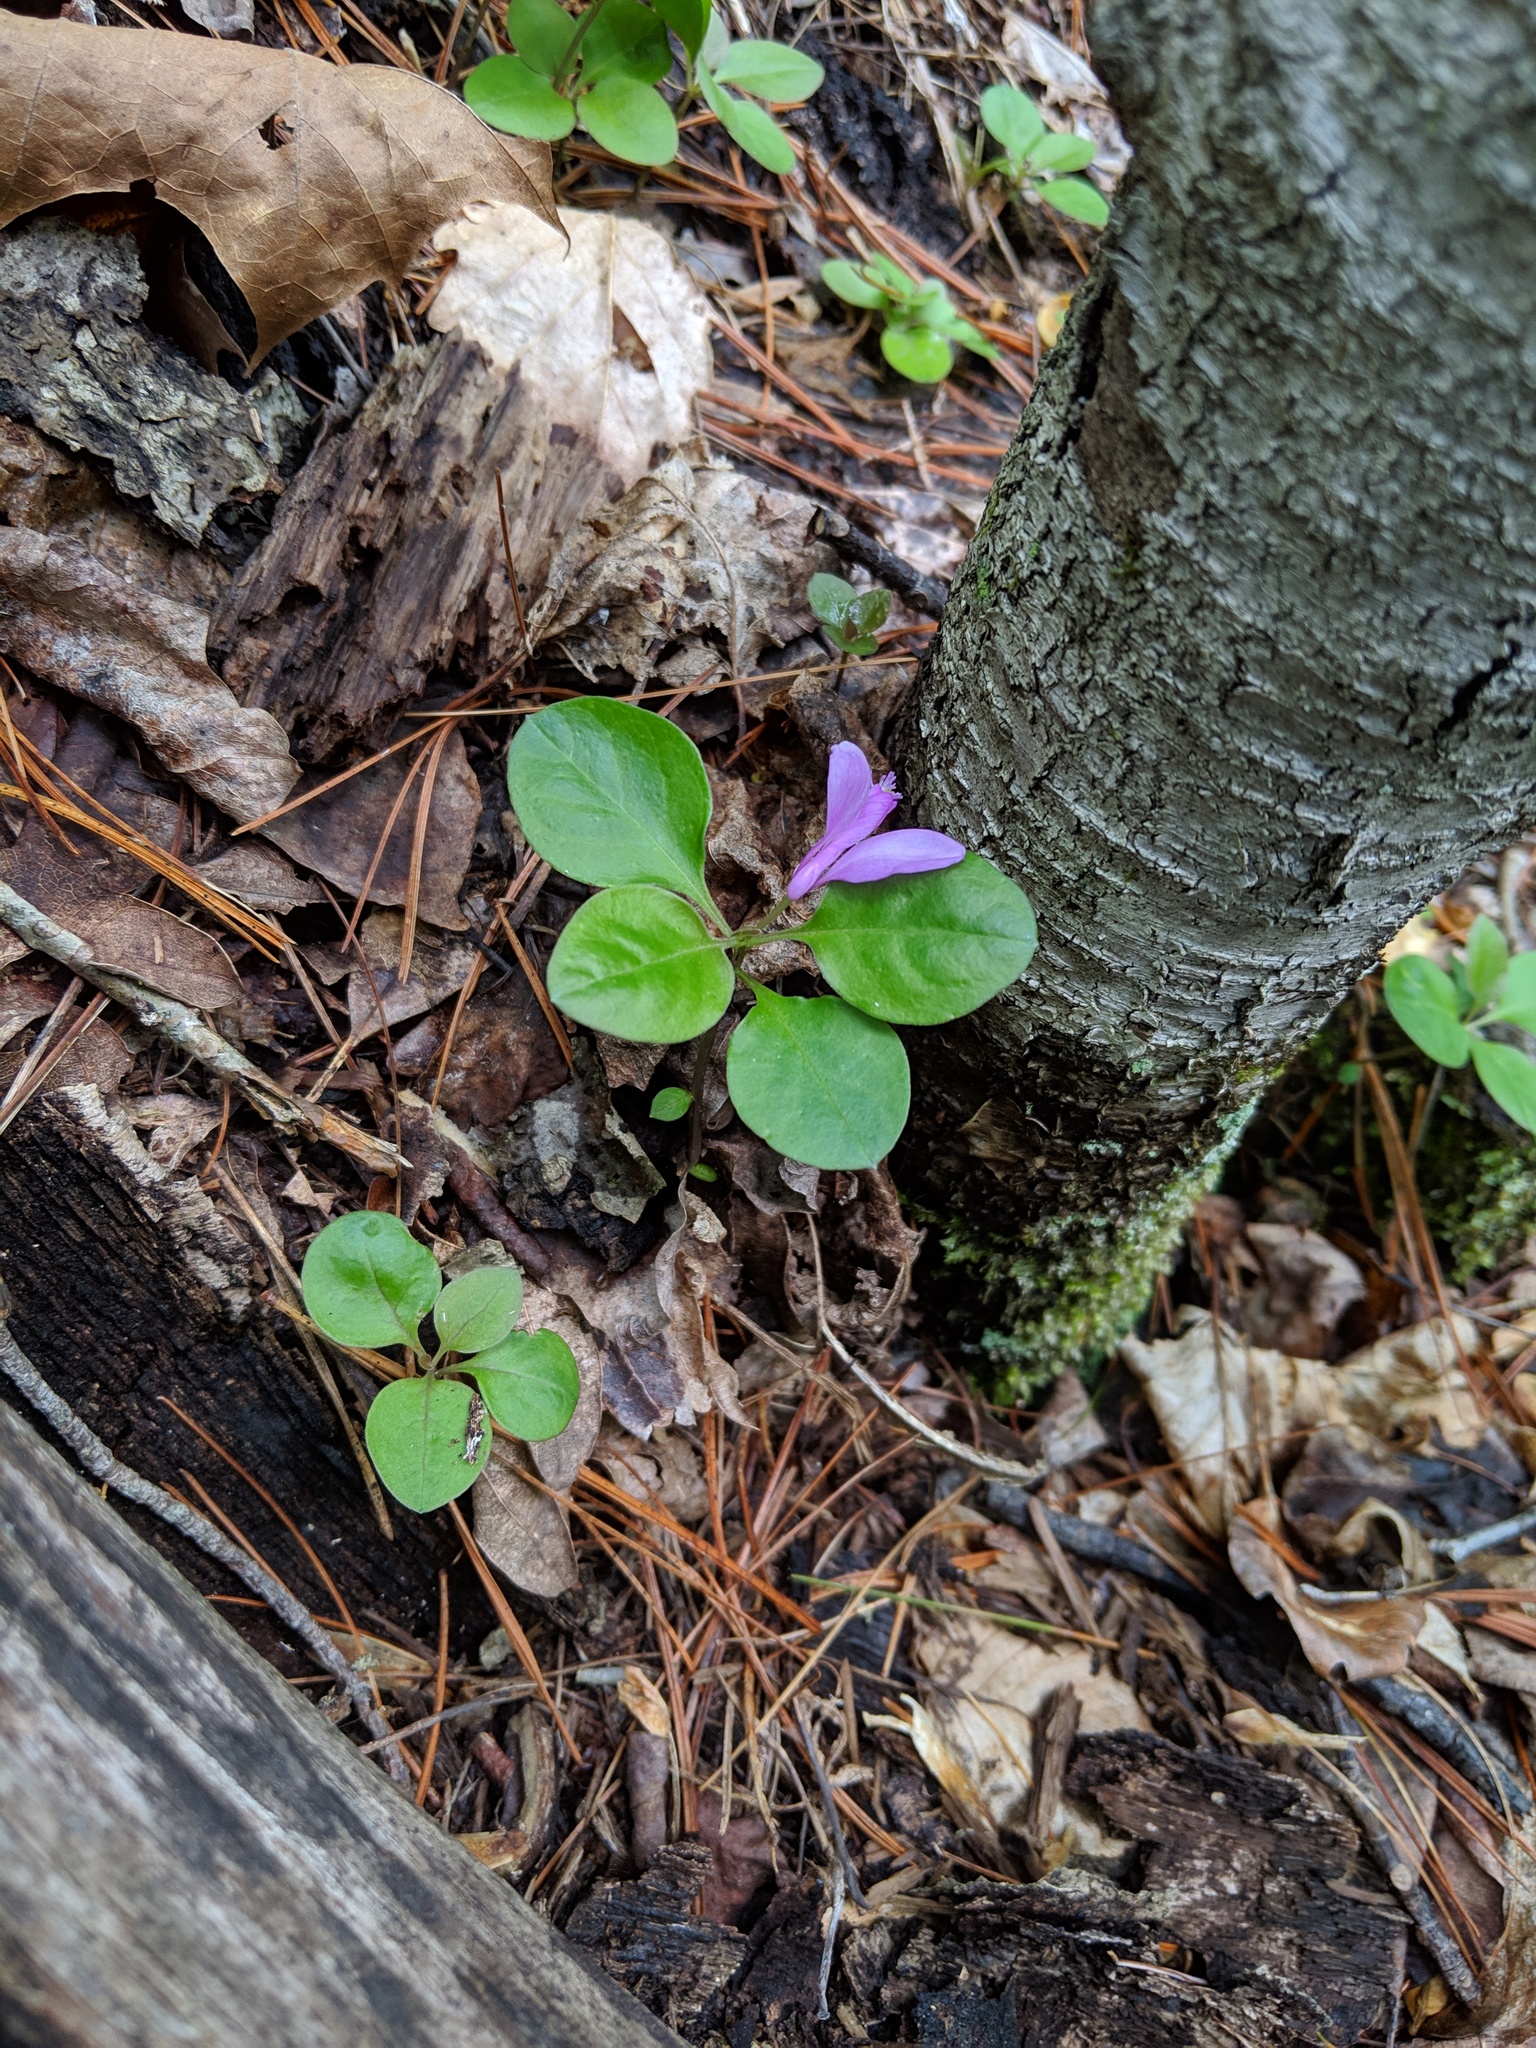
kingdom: Plantae
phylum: Tracheophyta
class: Magnoliopsida
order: Fabales
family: Polygalaceae
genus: Polygaloides
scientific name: Polygaloides paucifolia
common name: Bird-on-the-wing
